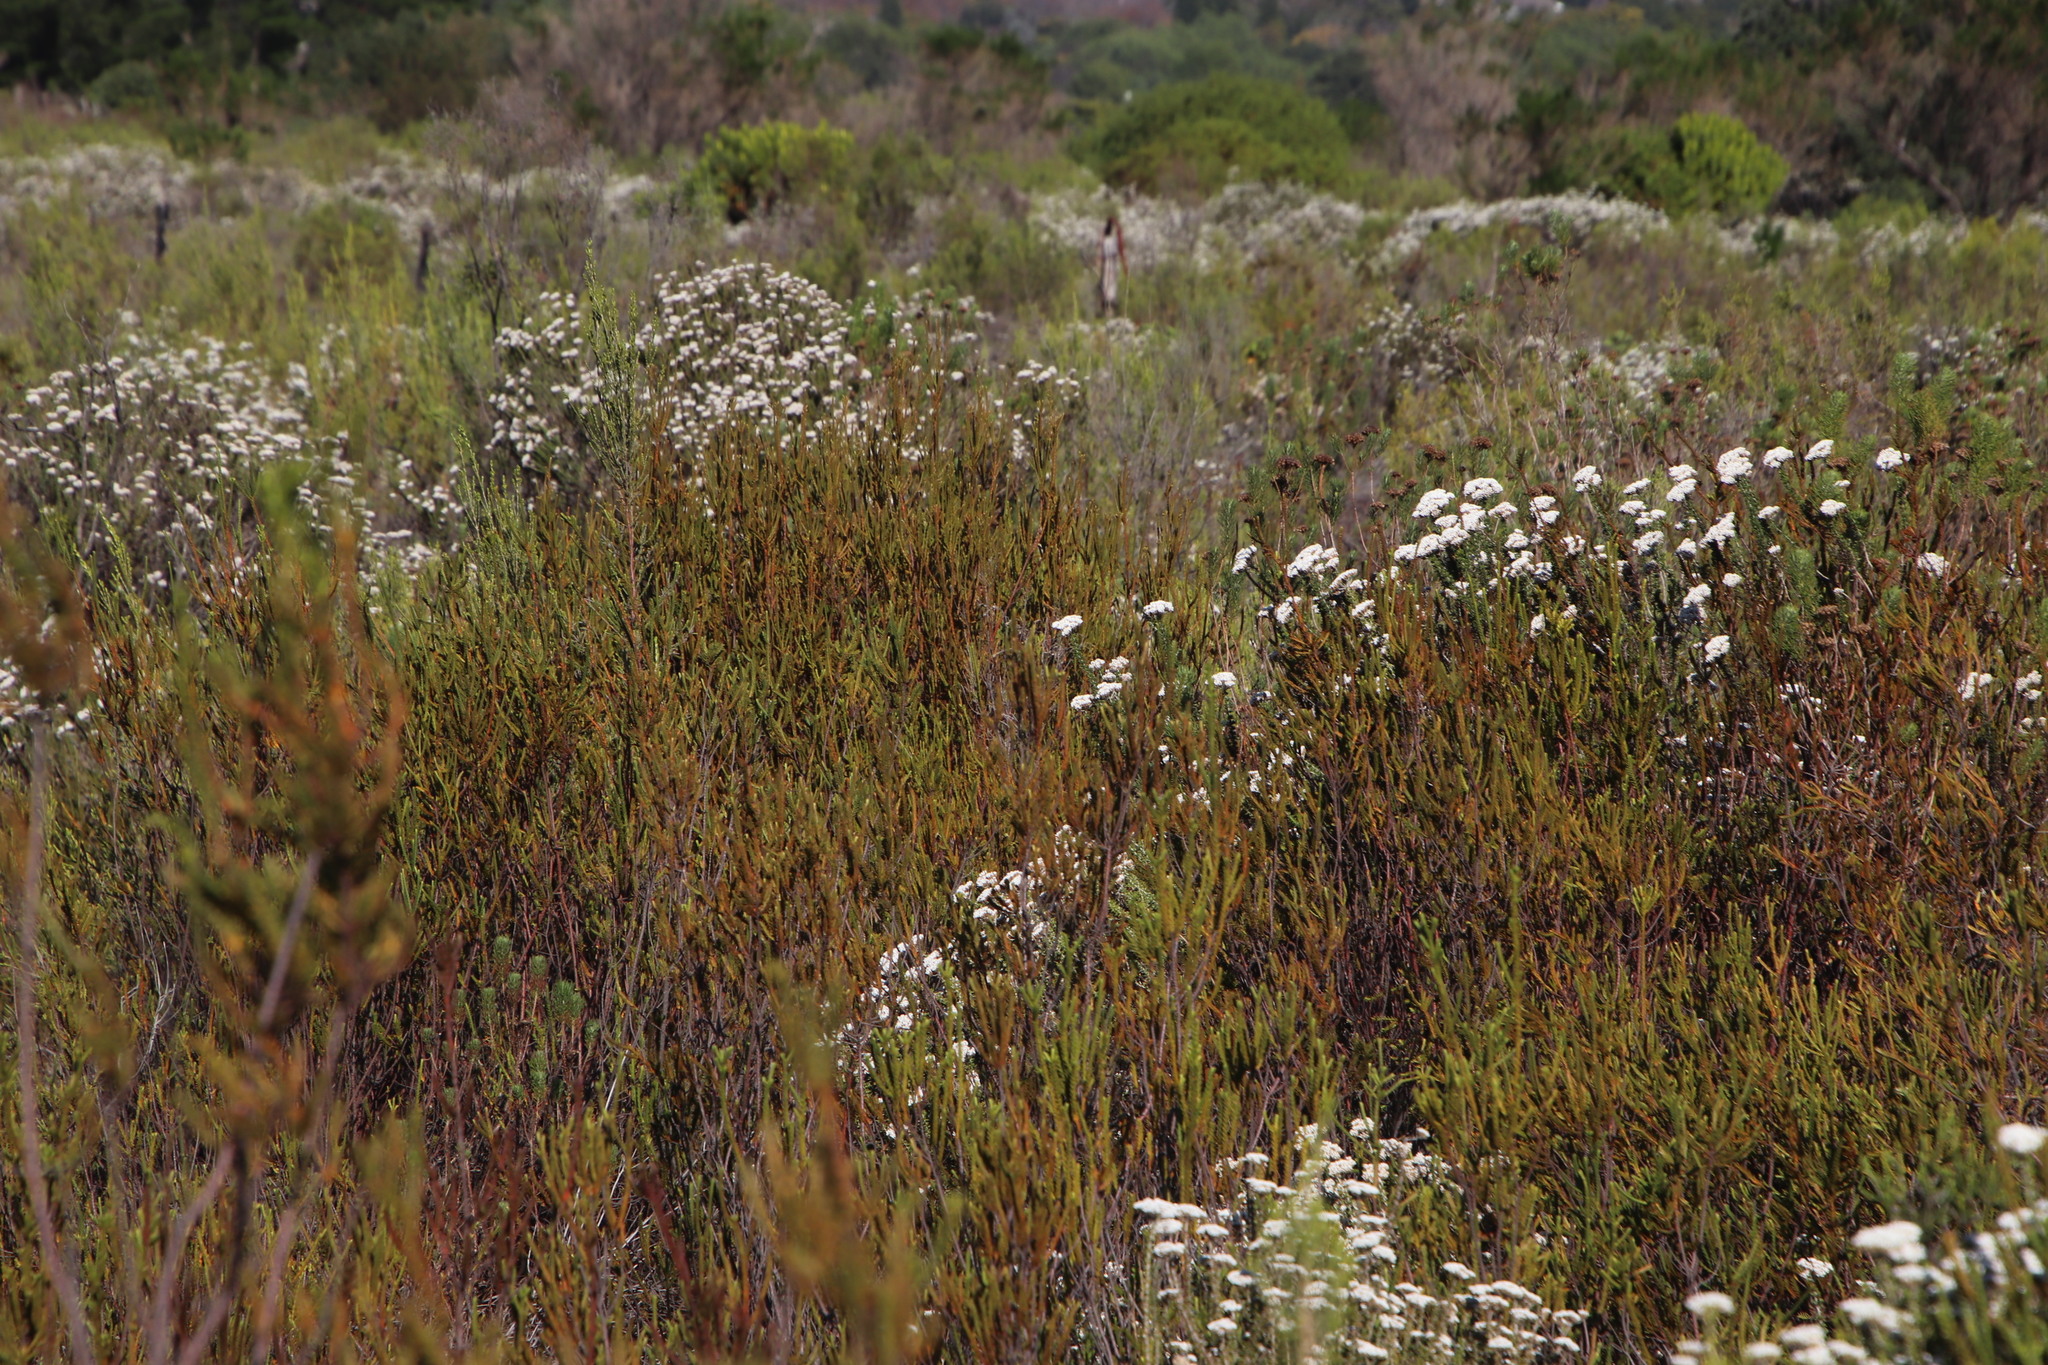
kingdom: Plantae
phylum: Tracheophyta
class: Magnoliopsida
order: Malvales
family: Thymelaeaceae
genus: Struthiola
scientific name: Struthiola striata
